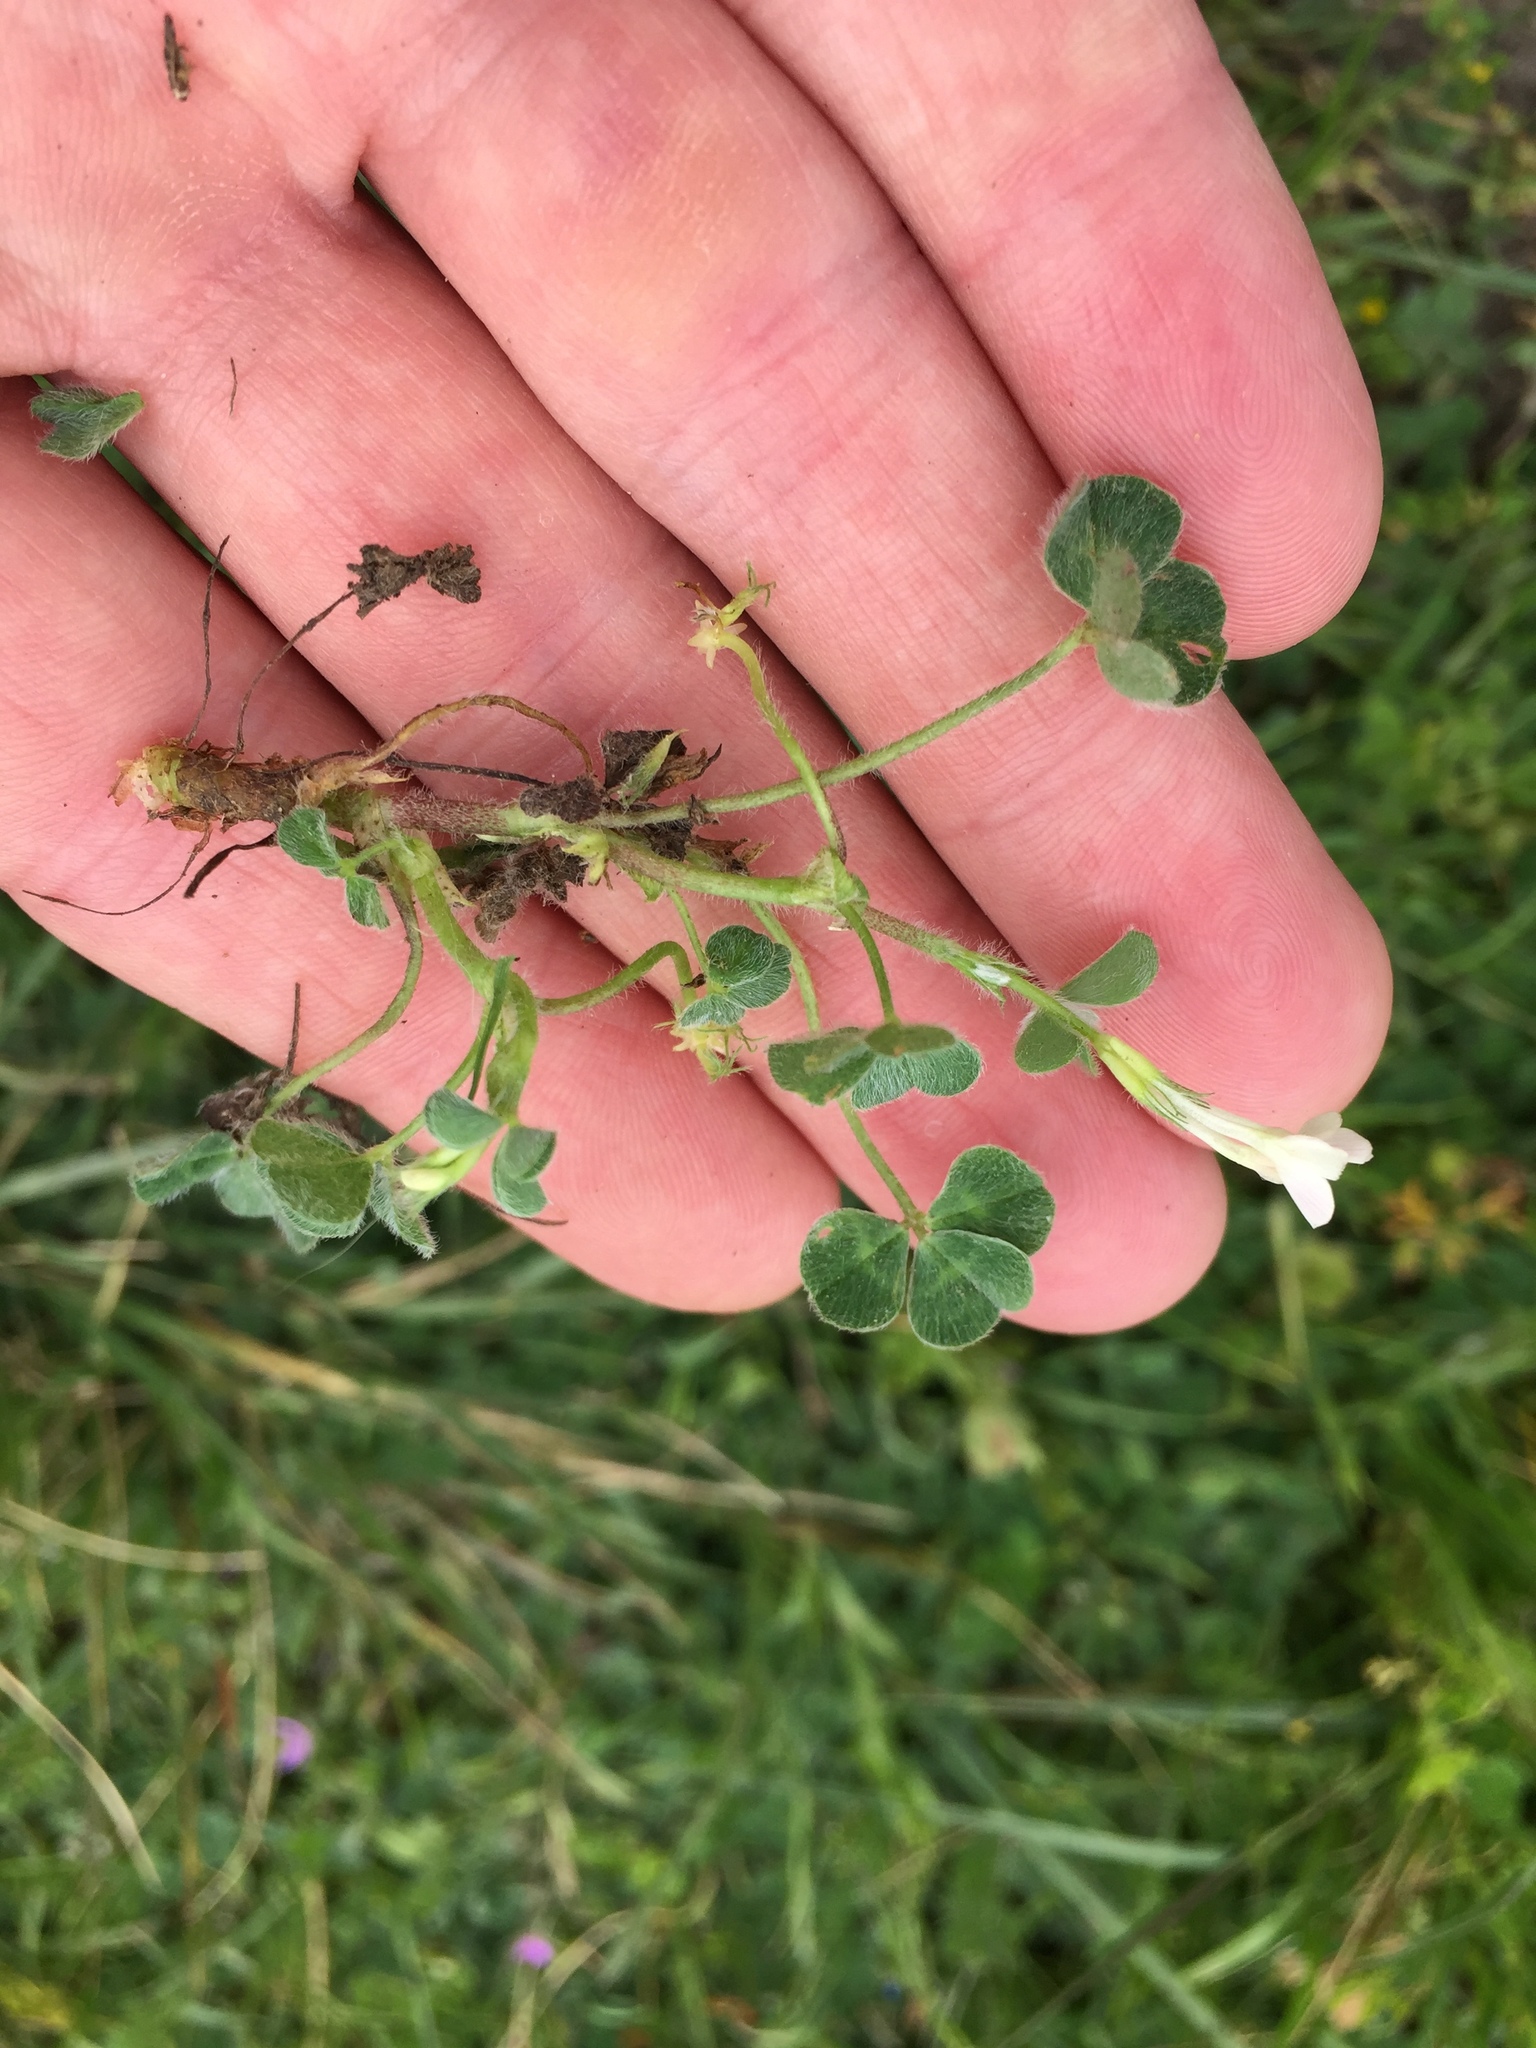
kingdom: Plantae
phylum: Tracheophyta
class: Magnoliopsida
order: Fabales
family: Fabaceae
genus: Trifolium
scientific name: Trifolium subterraneum
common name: Subterranean clover
